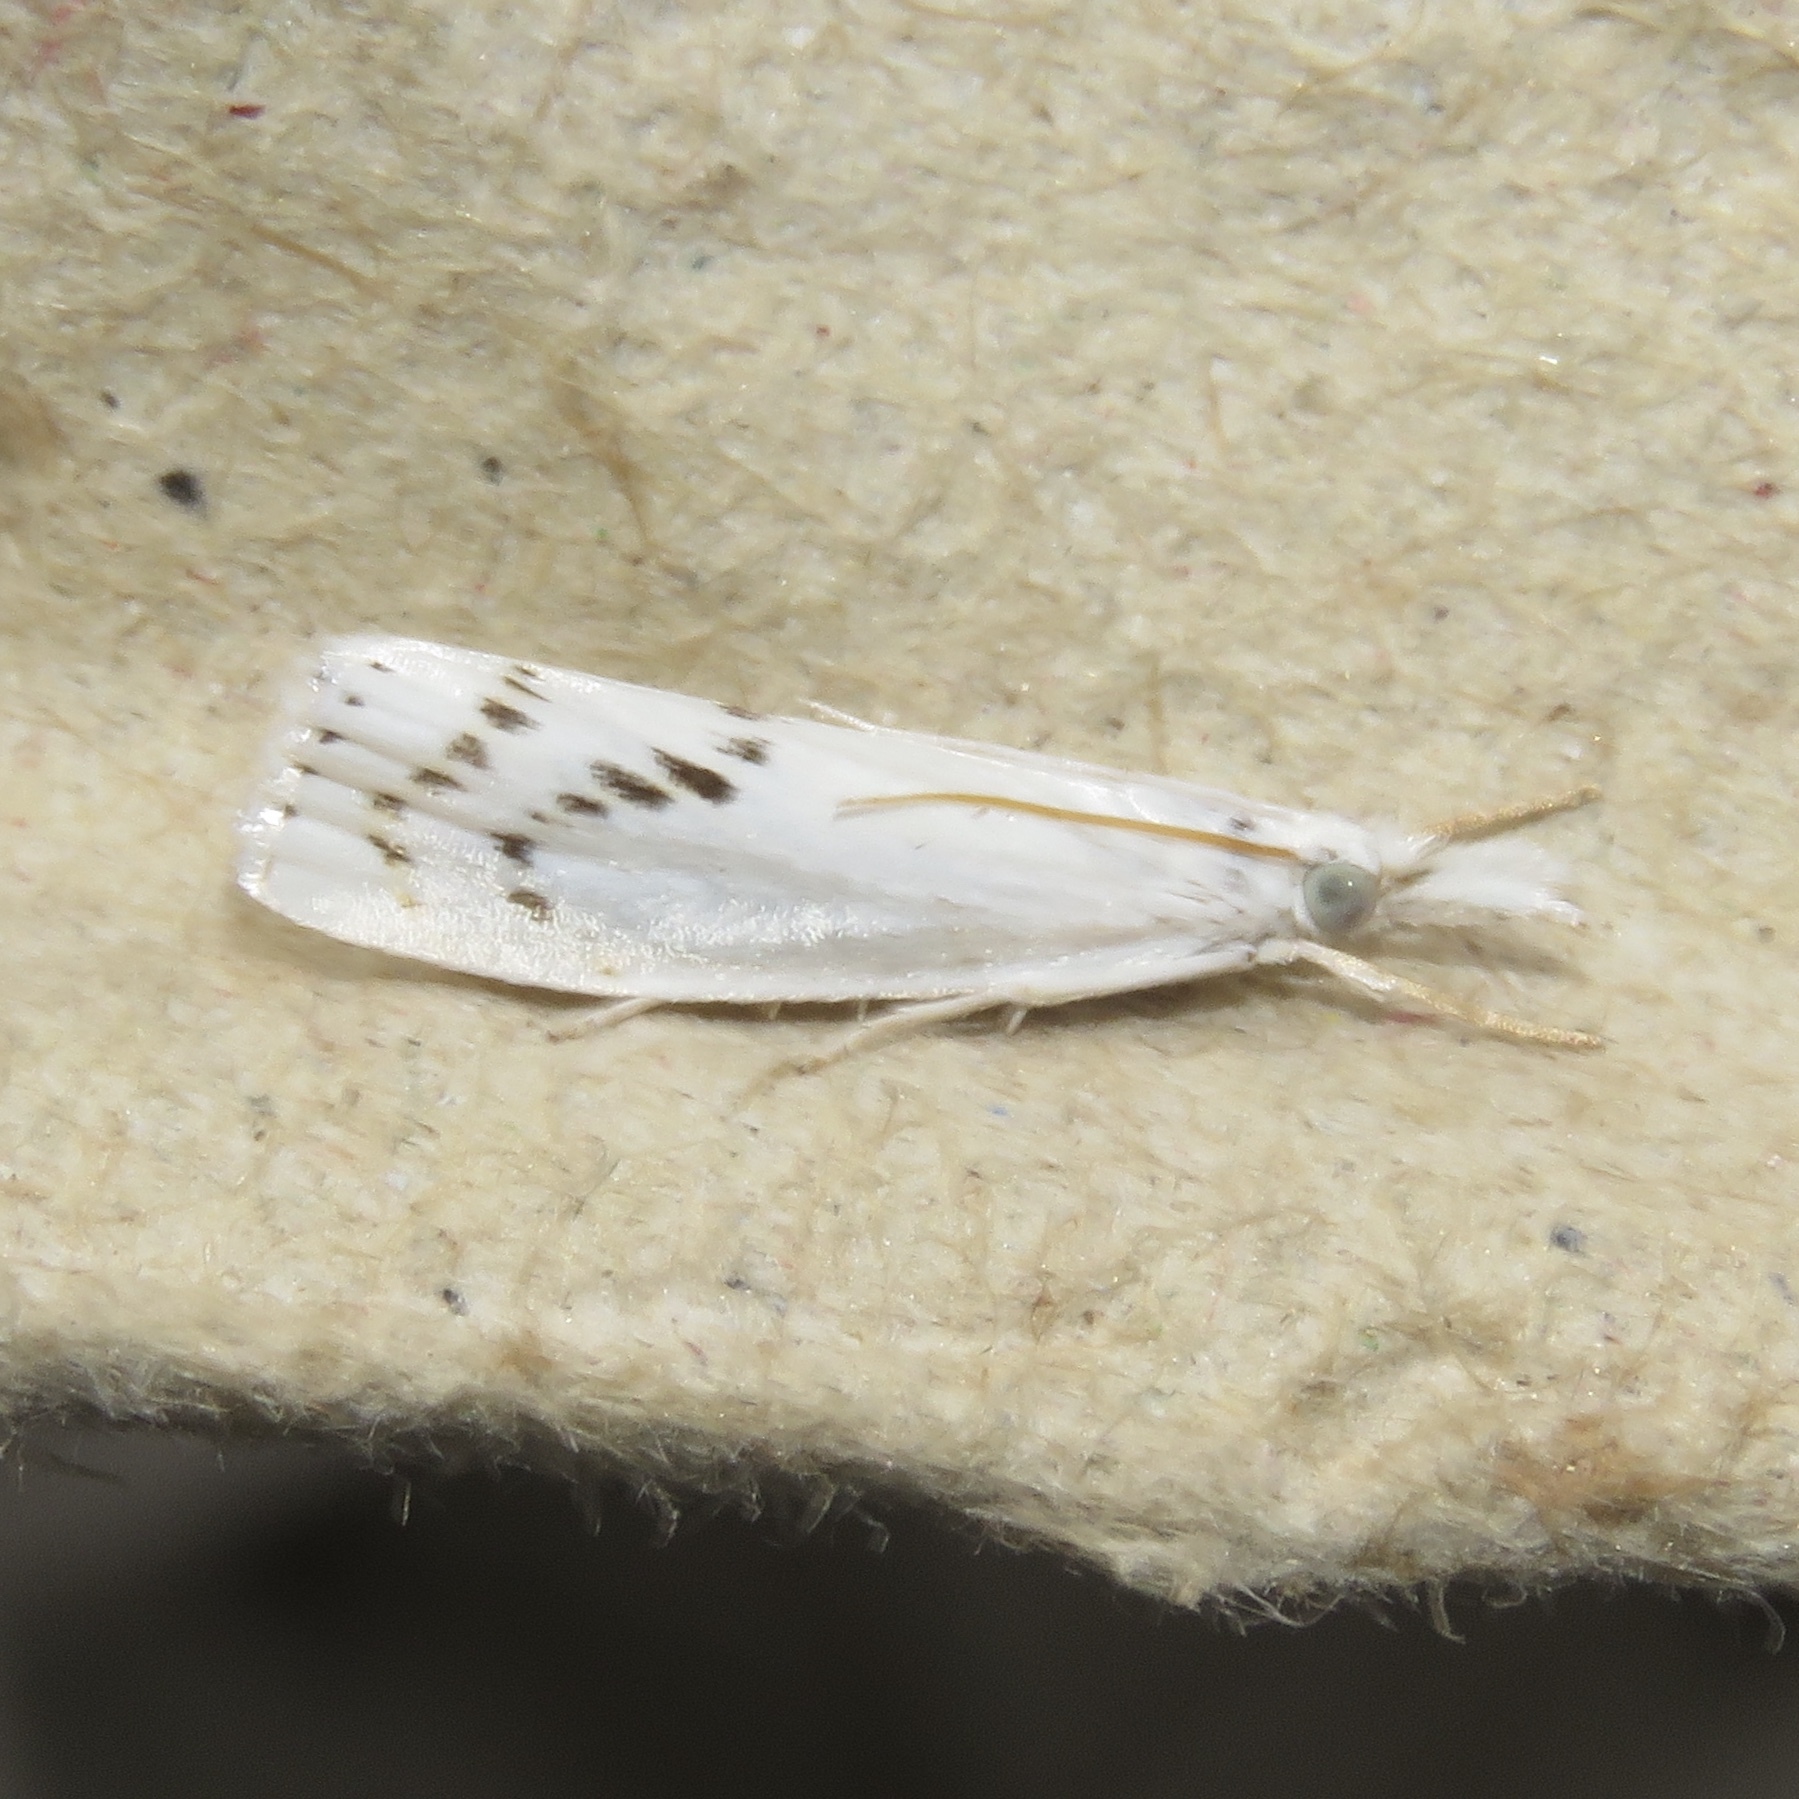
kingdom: Animalia
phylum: Arthropoda
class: Insecta
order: Lepidoptera
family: Crambidae
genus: Crambus
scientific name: Crambus Arequipa turbatella
